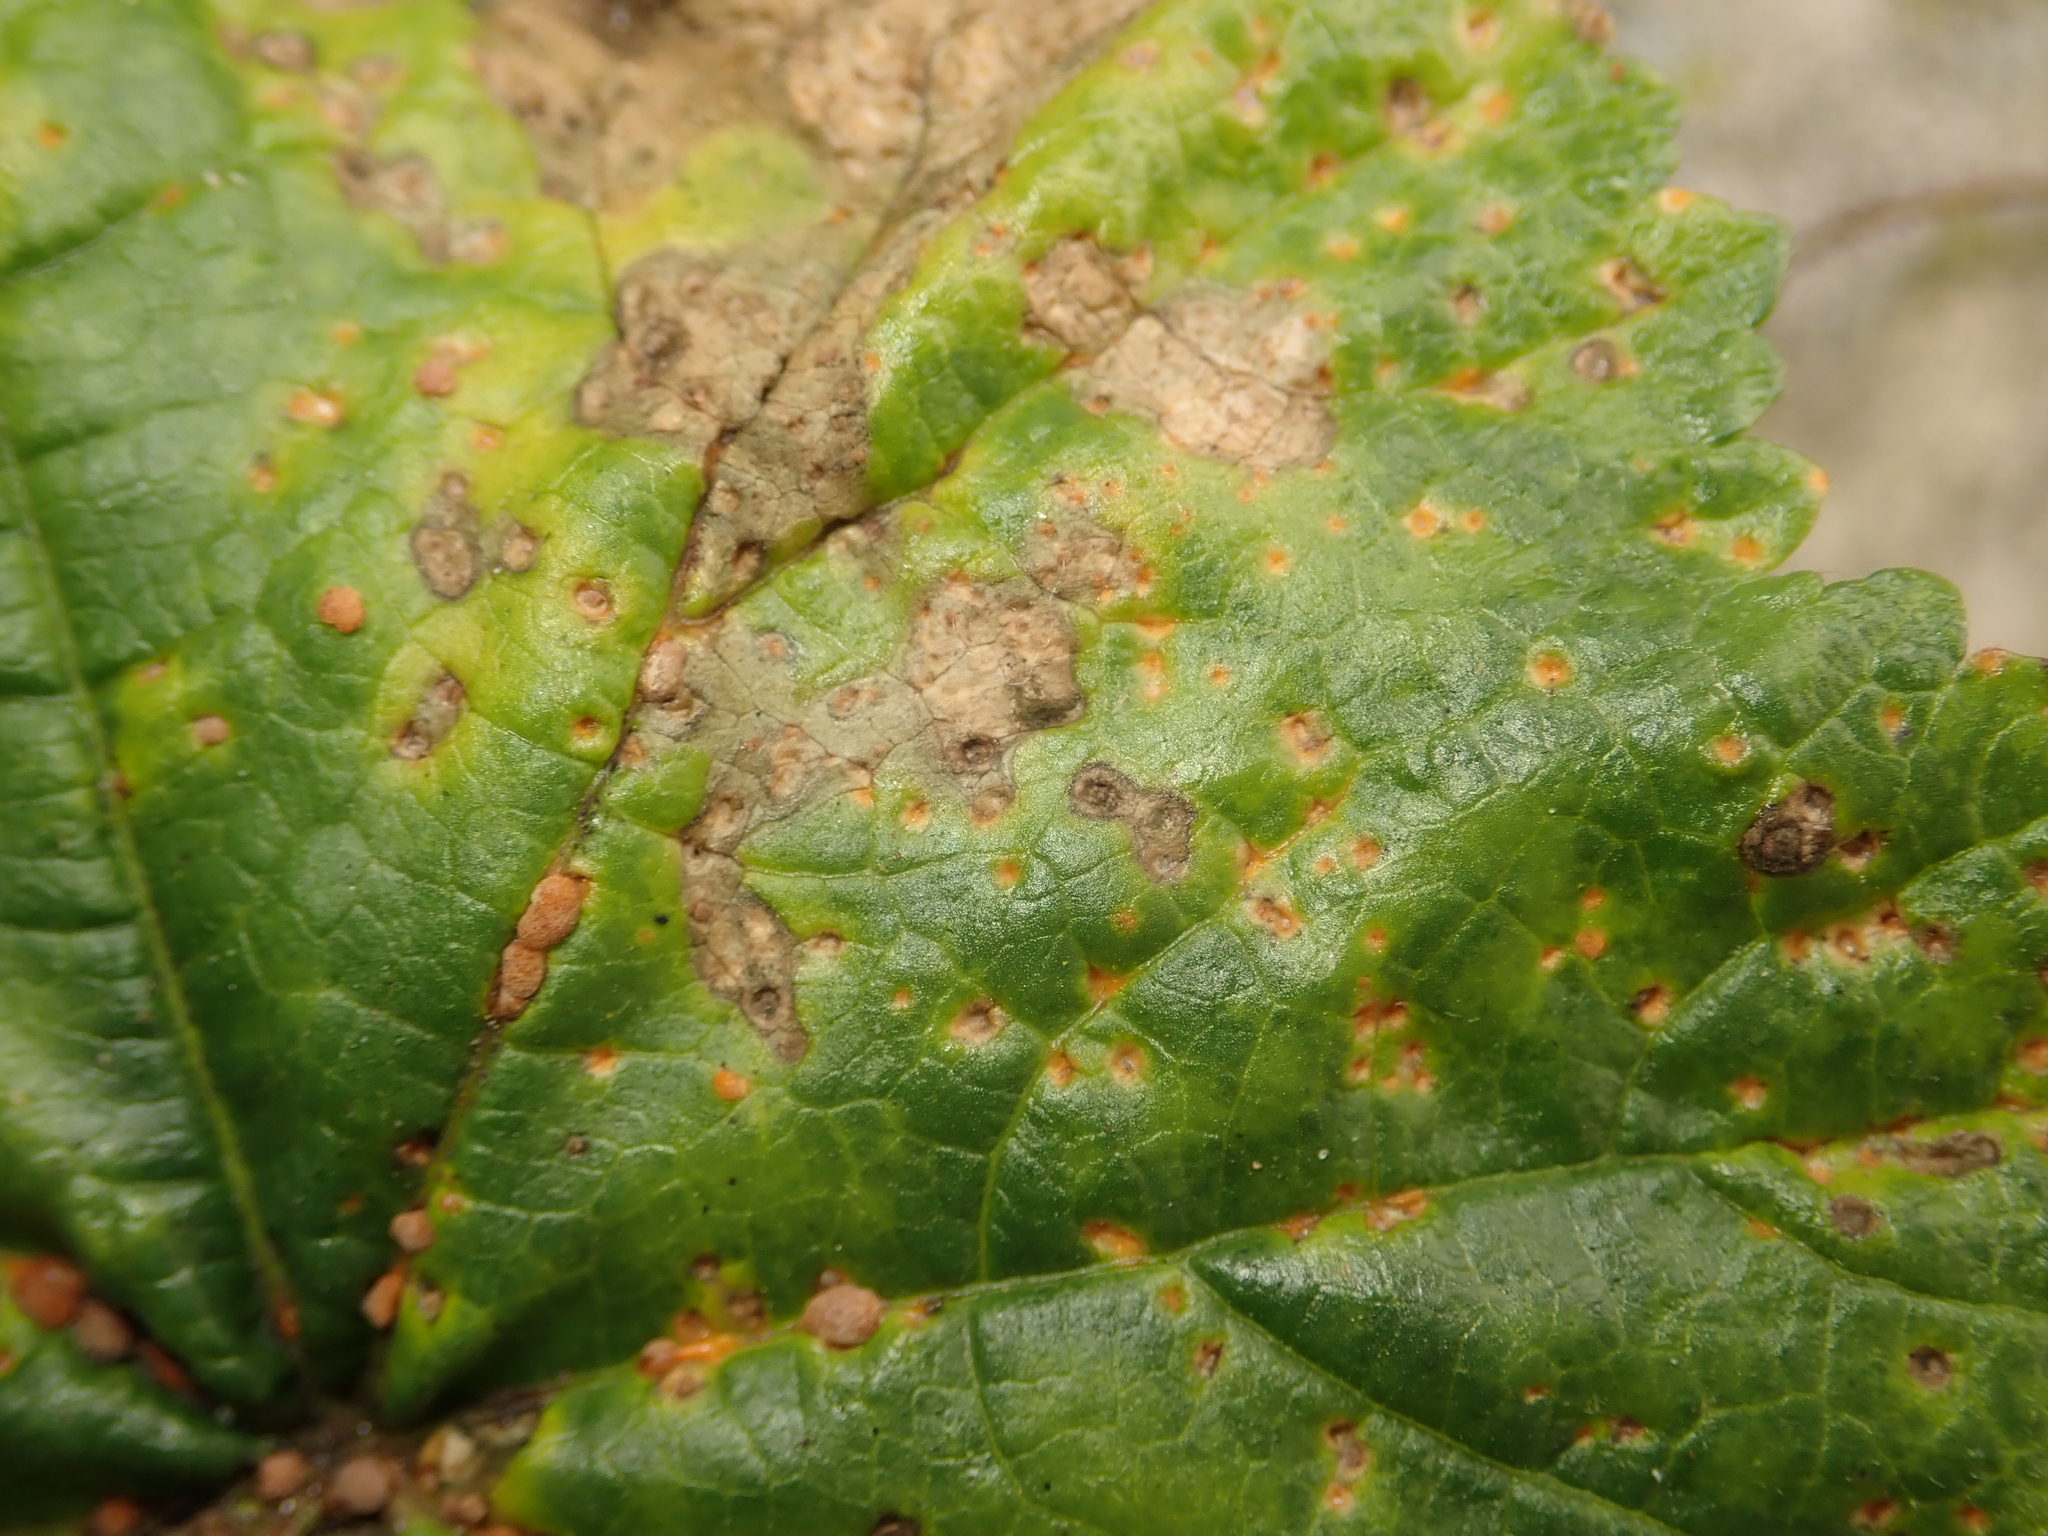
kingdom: Fungi
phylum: Basidiomycota
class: Pucciniomycetes
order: Pucciniales
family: Pucciniaceae
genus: Puccinia
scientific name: Puccinia malvacearum
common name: Hollyhock rust
